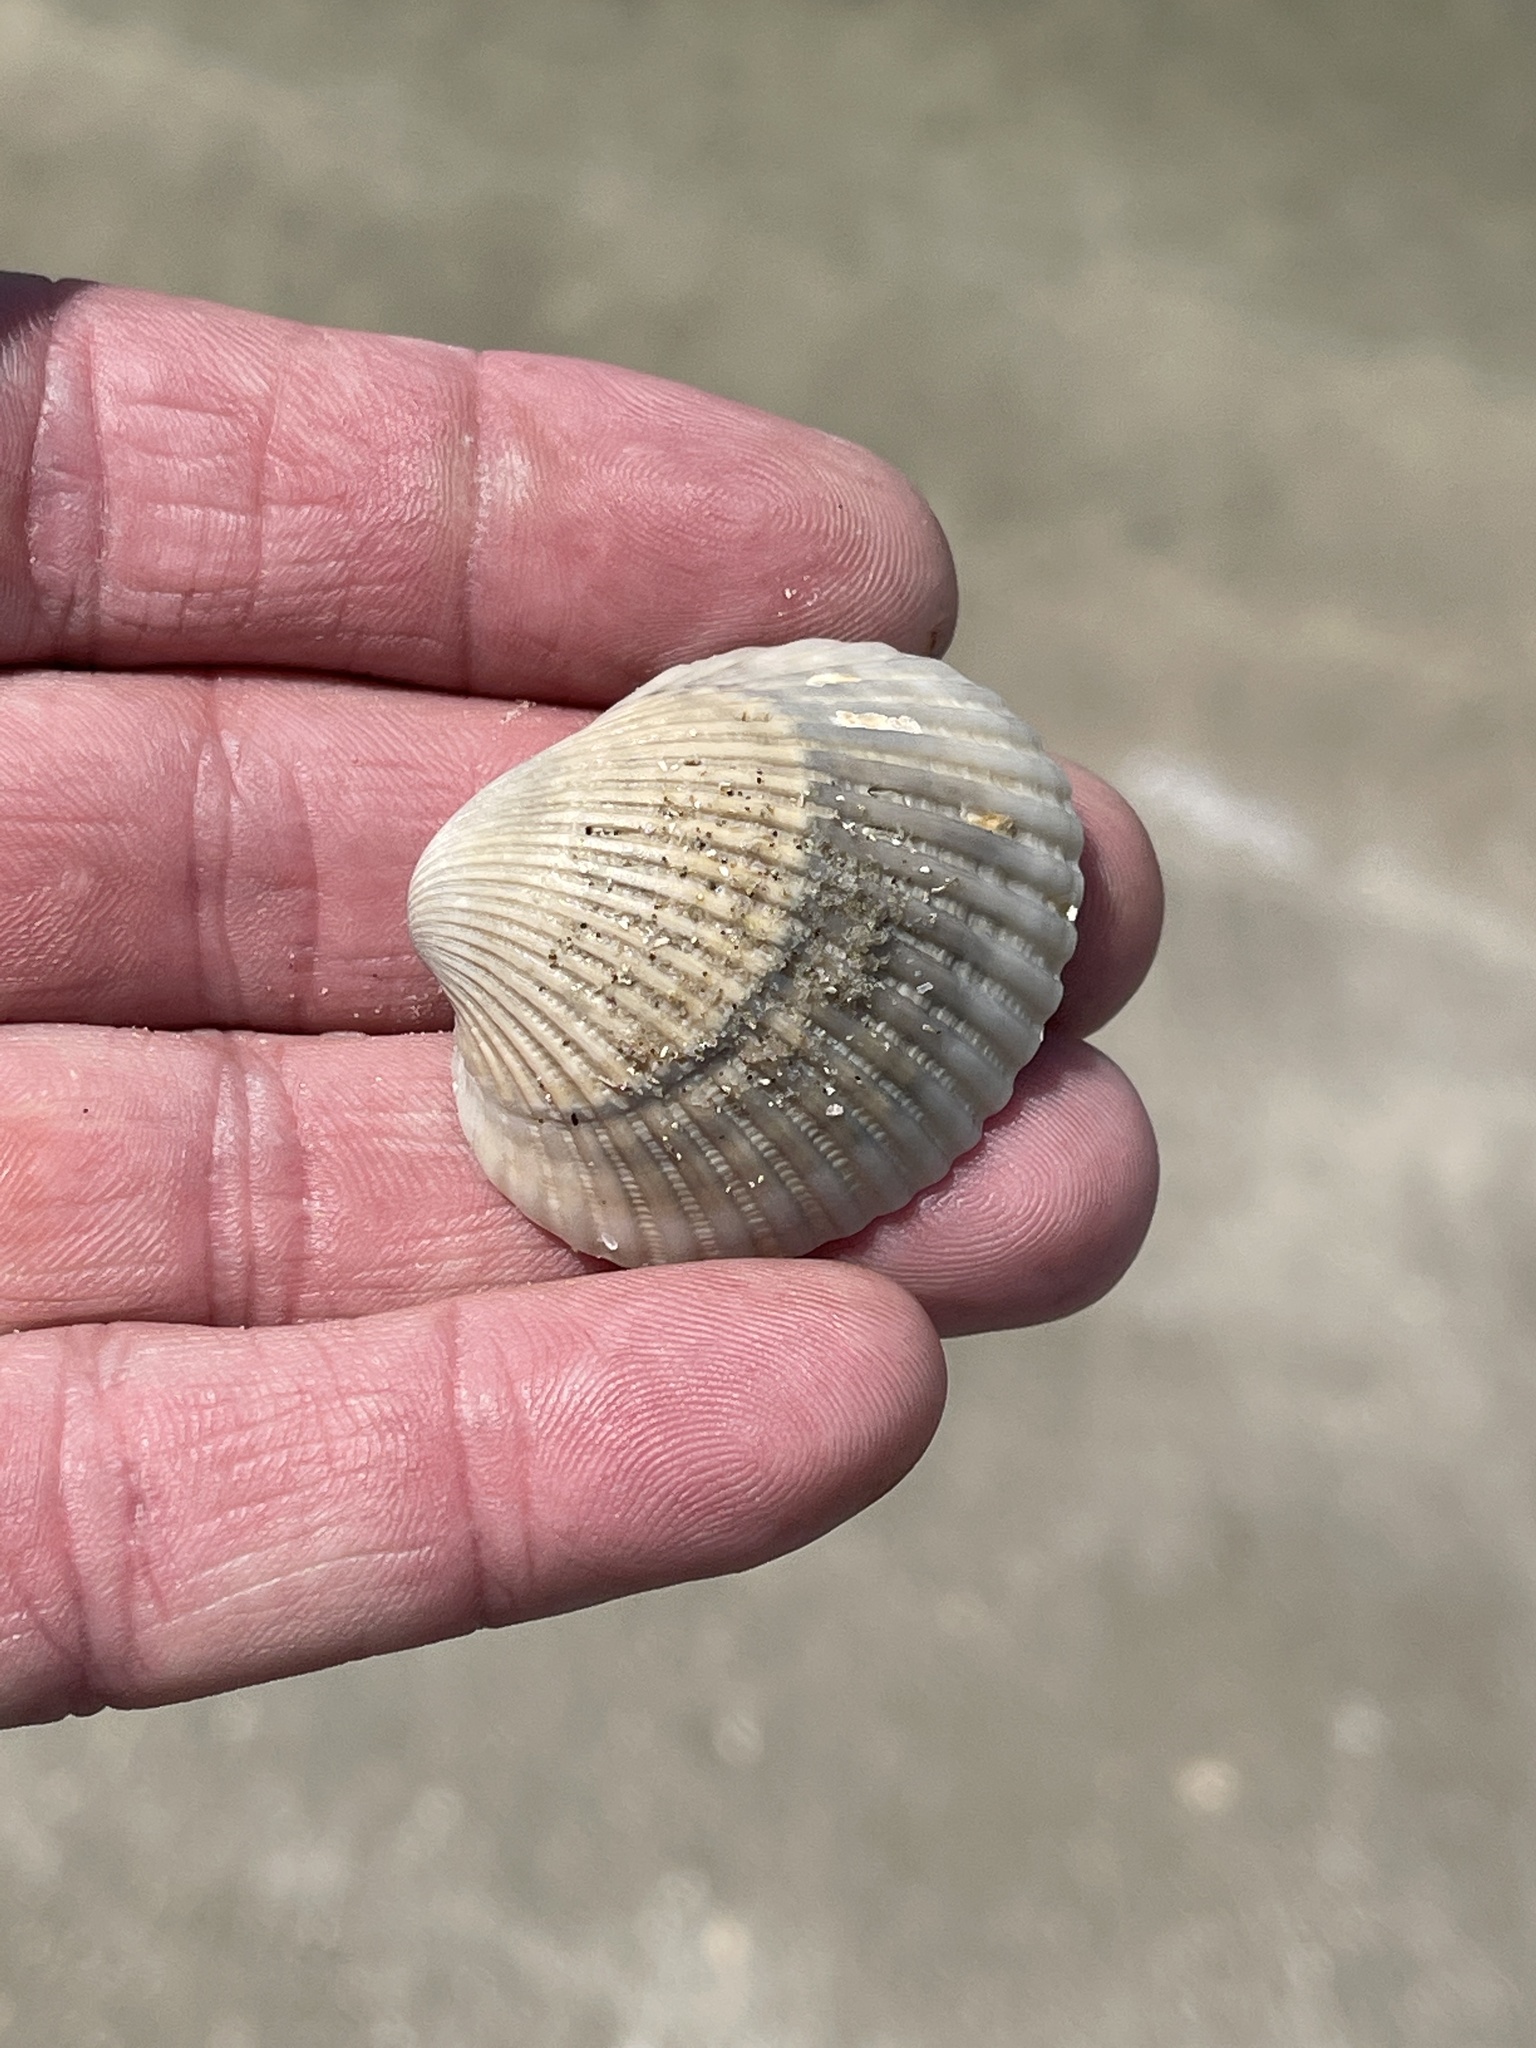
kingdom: Animalia
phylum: Mollusca
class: Bivalvia
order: Arcida
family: Arcidae
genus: Lunarca
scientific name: Lunarca ovalis
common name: Blood ark
